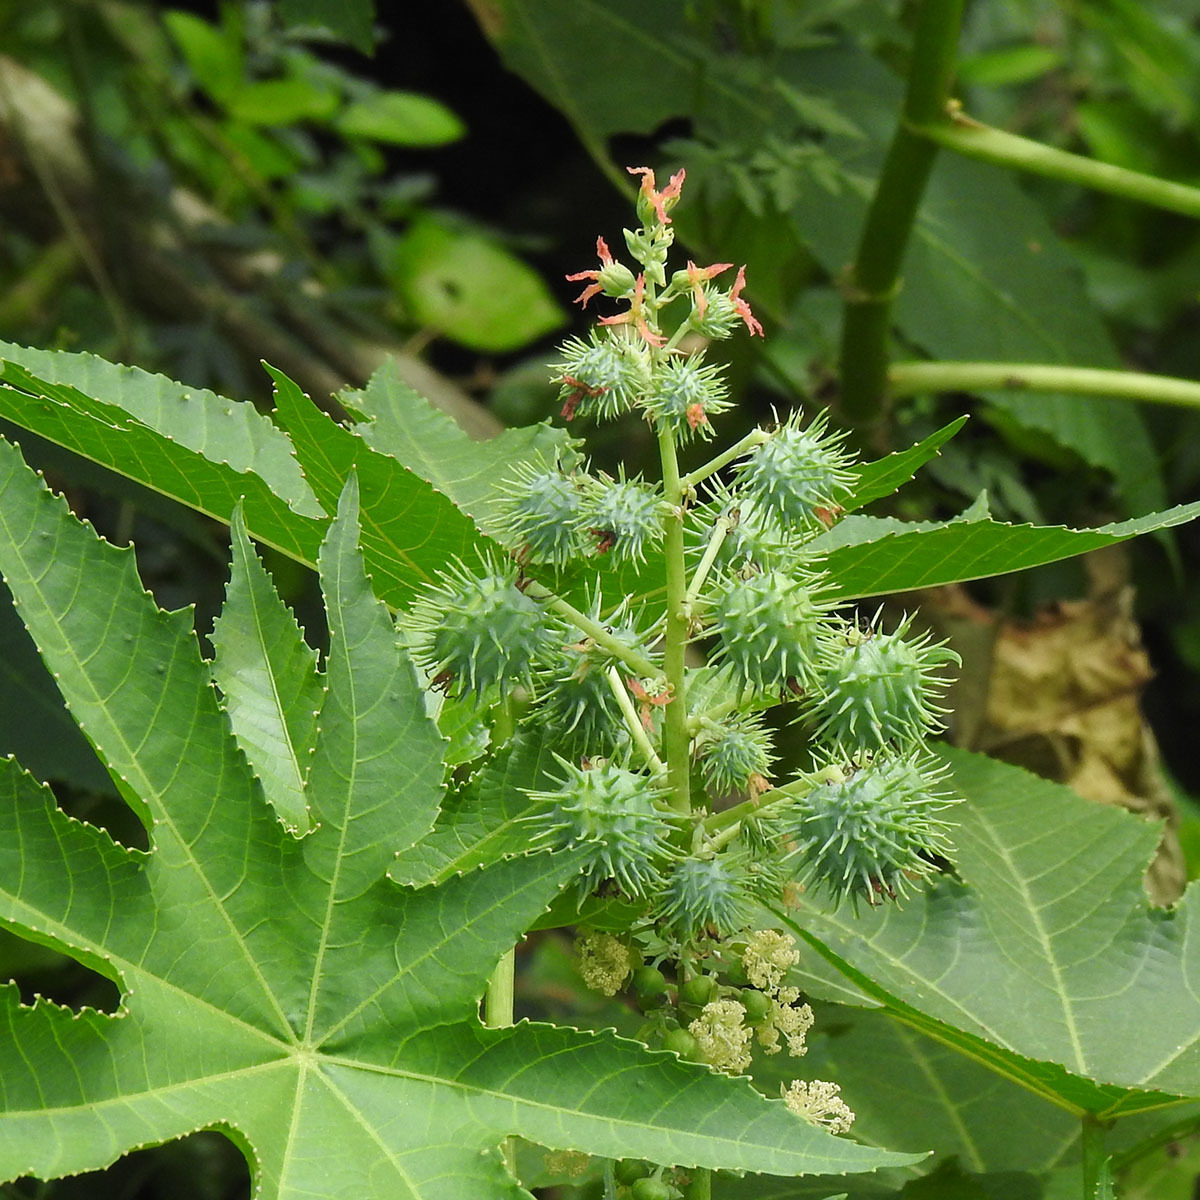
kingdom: Plantae
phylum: Tracheophyta
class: Magnoliopsida
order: Malpighiales
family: Euphorbiaceae
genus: Ricinus
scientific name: Ricinus communis
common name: Castor-oil-plant
